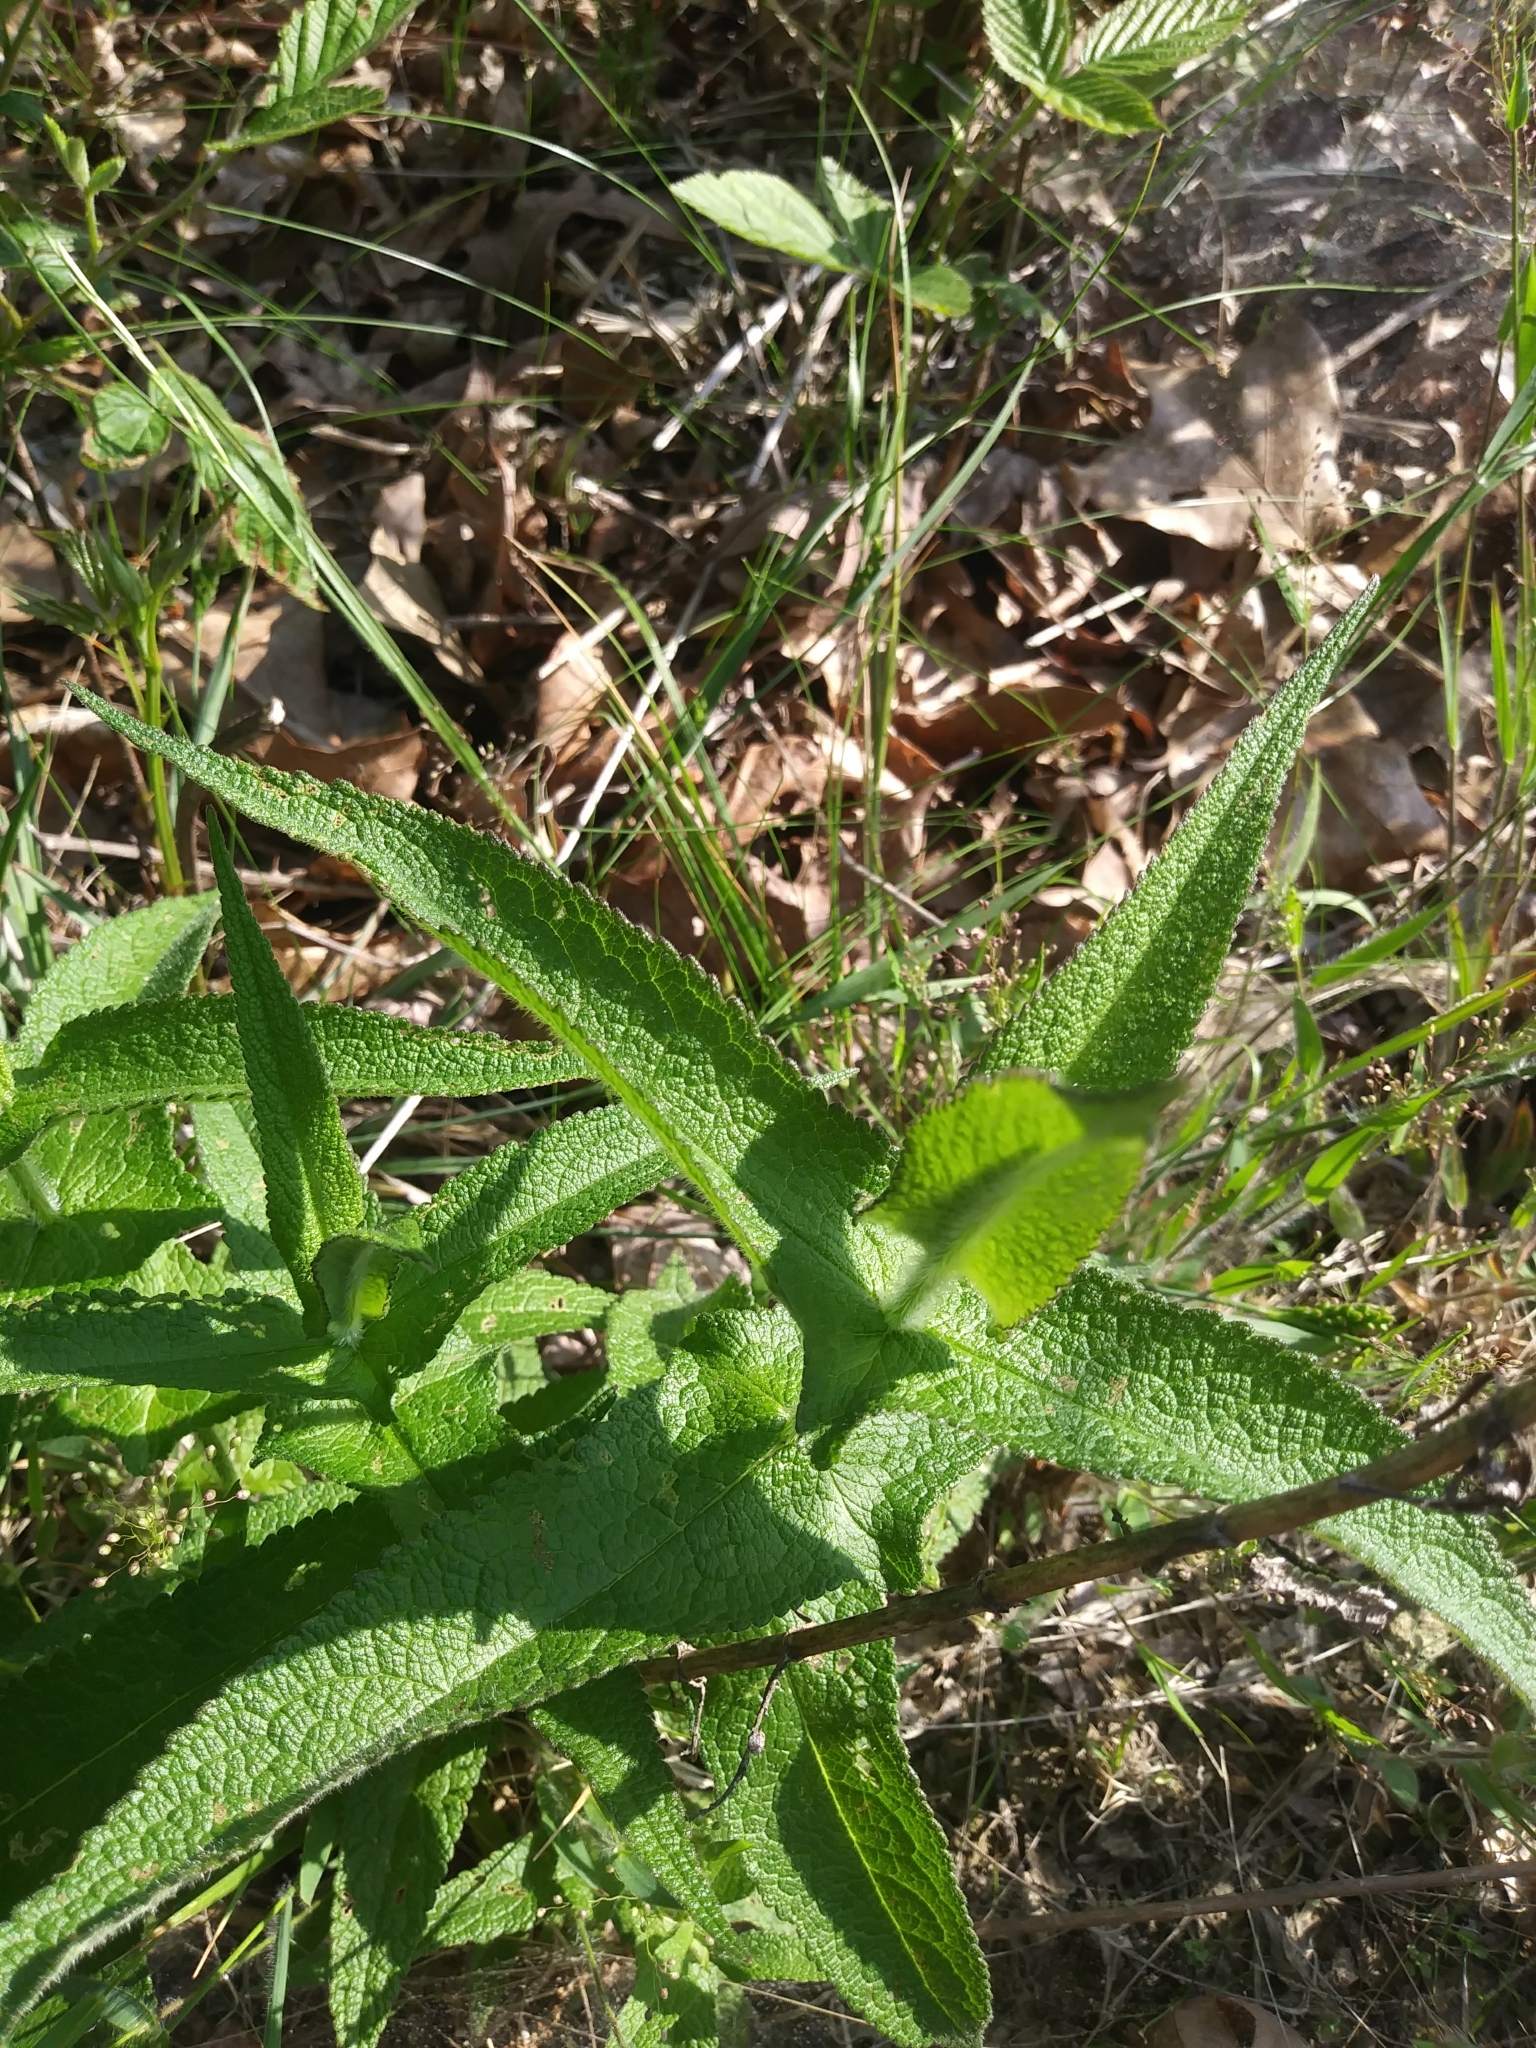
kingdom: Plantae
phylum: Tracheophyta
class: Magnoliopsida
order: Asterales
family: Asteraceae
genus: Eupatorium
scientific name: Eupatorium perfoliatum
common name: Boneset
